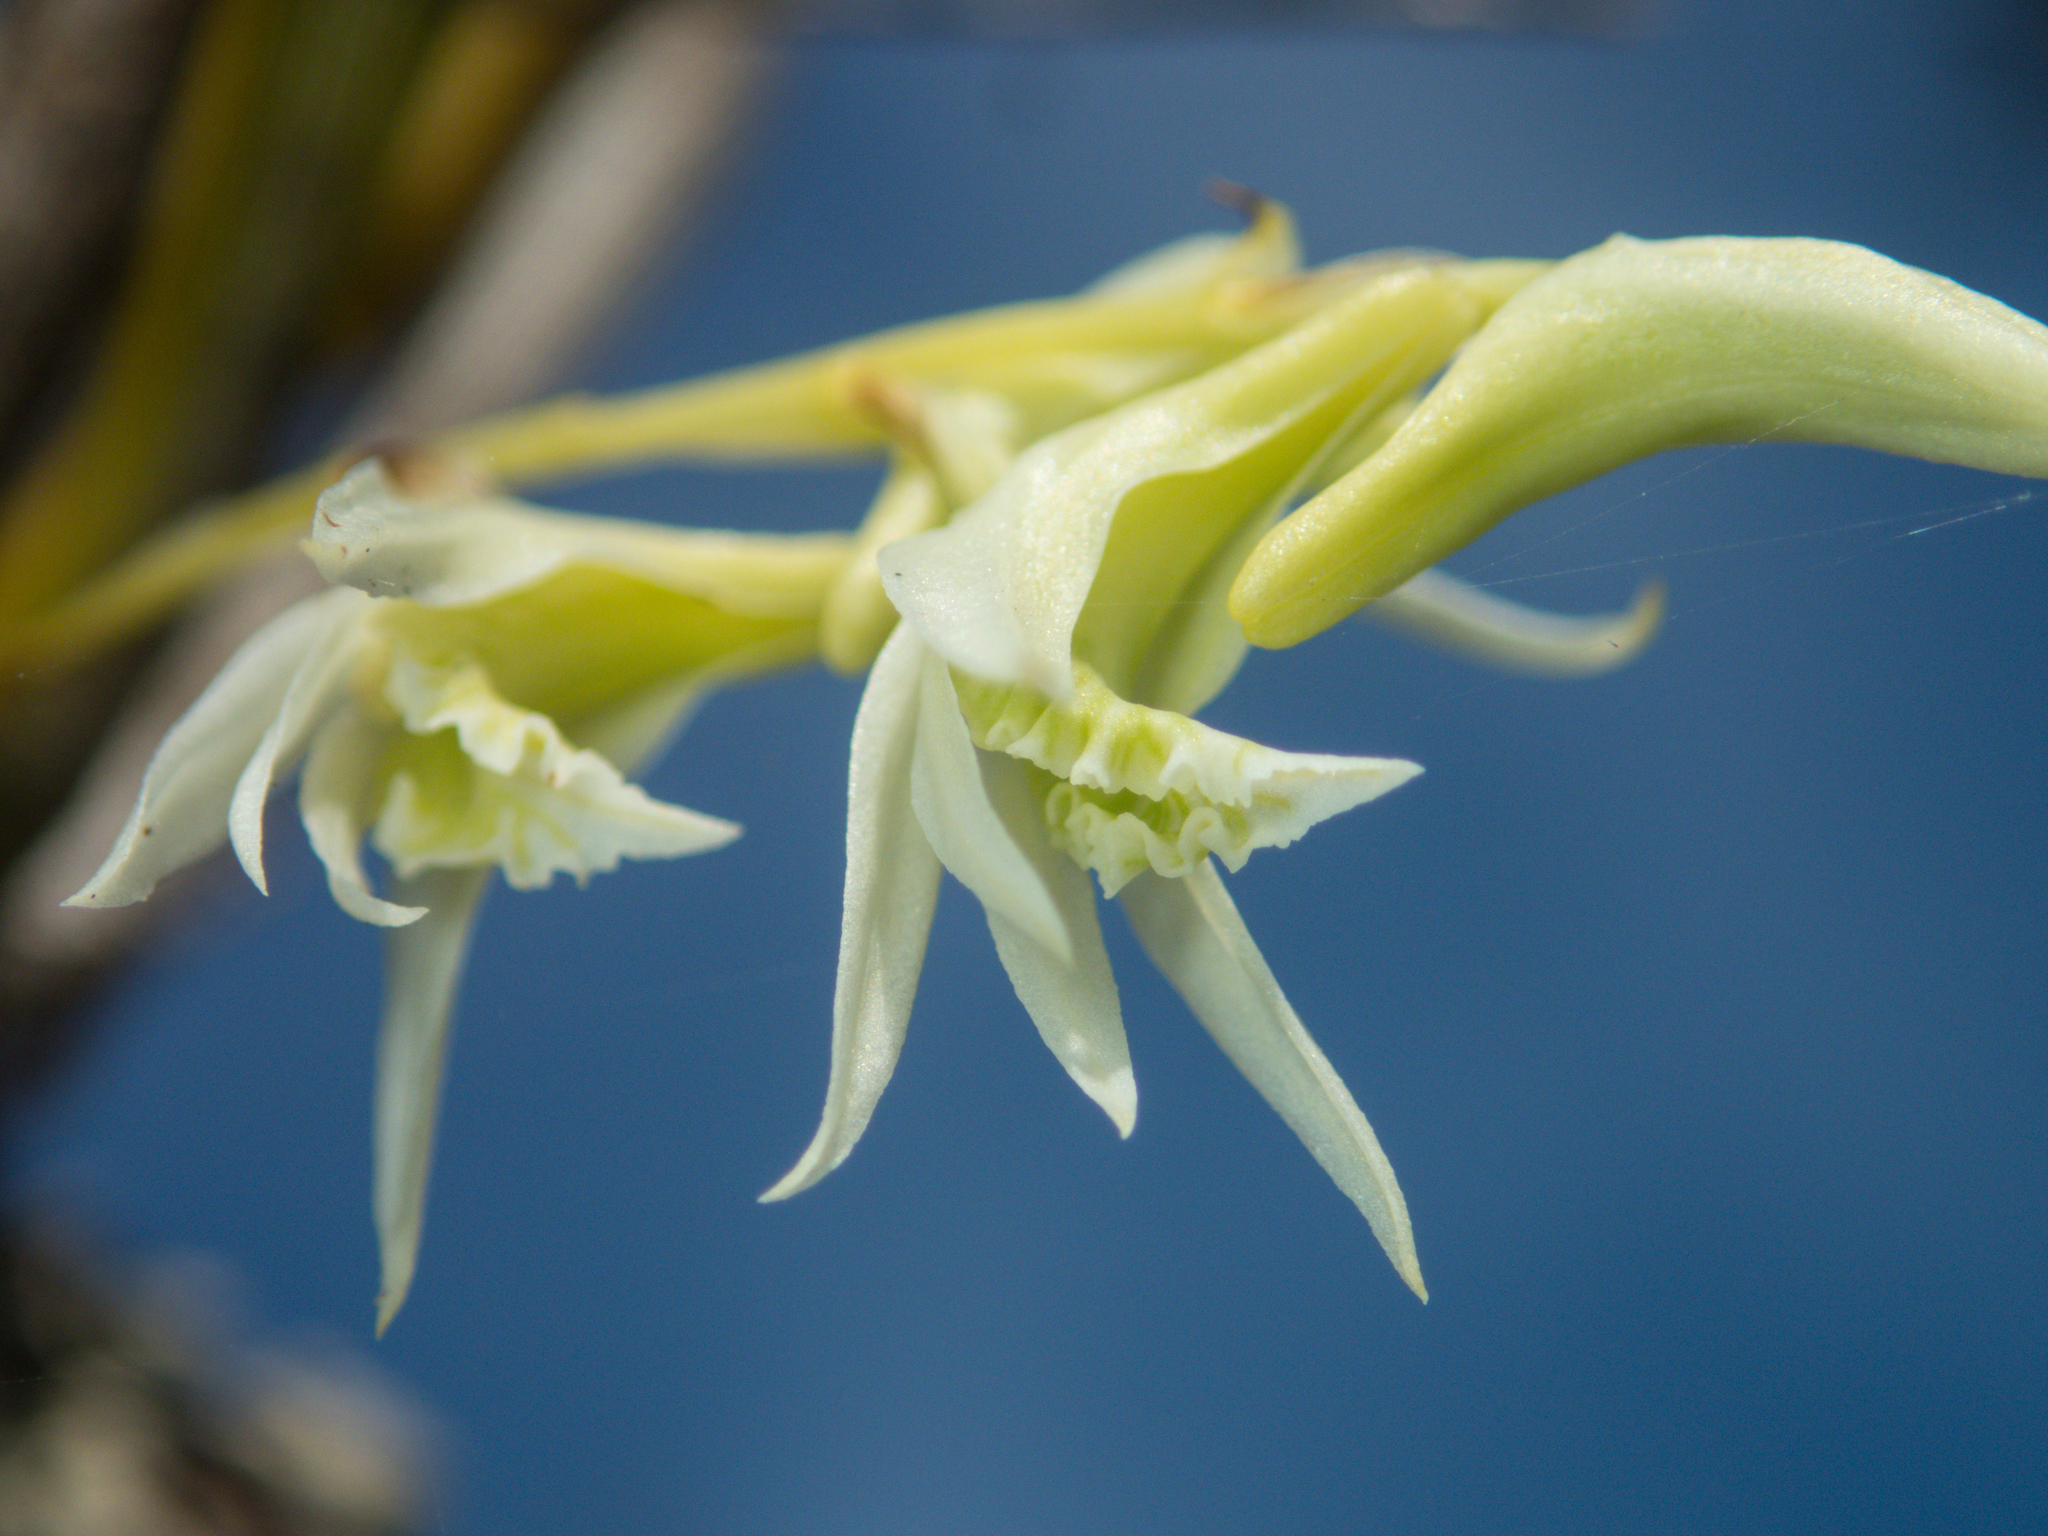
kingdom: Plantae
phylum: Tracheophyta
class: Liliopsida
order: Asparagales
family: Orchidaceae
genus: Dendrobium
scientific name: Dendrobium kratense
